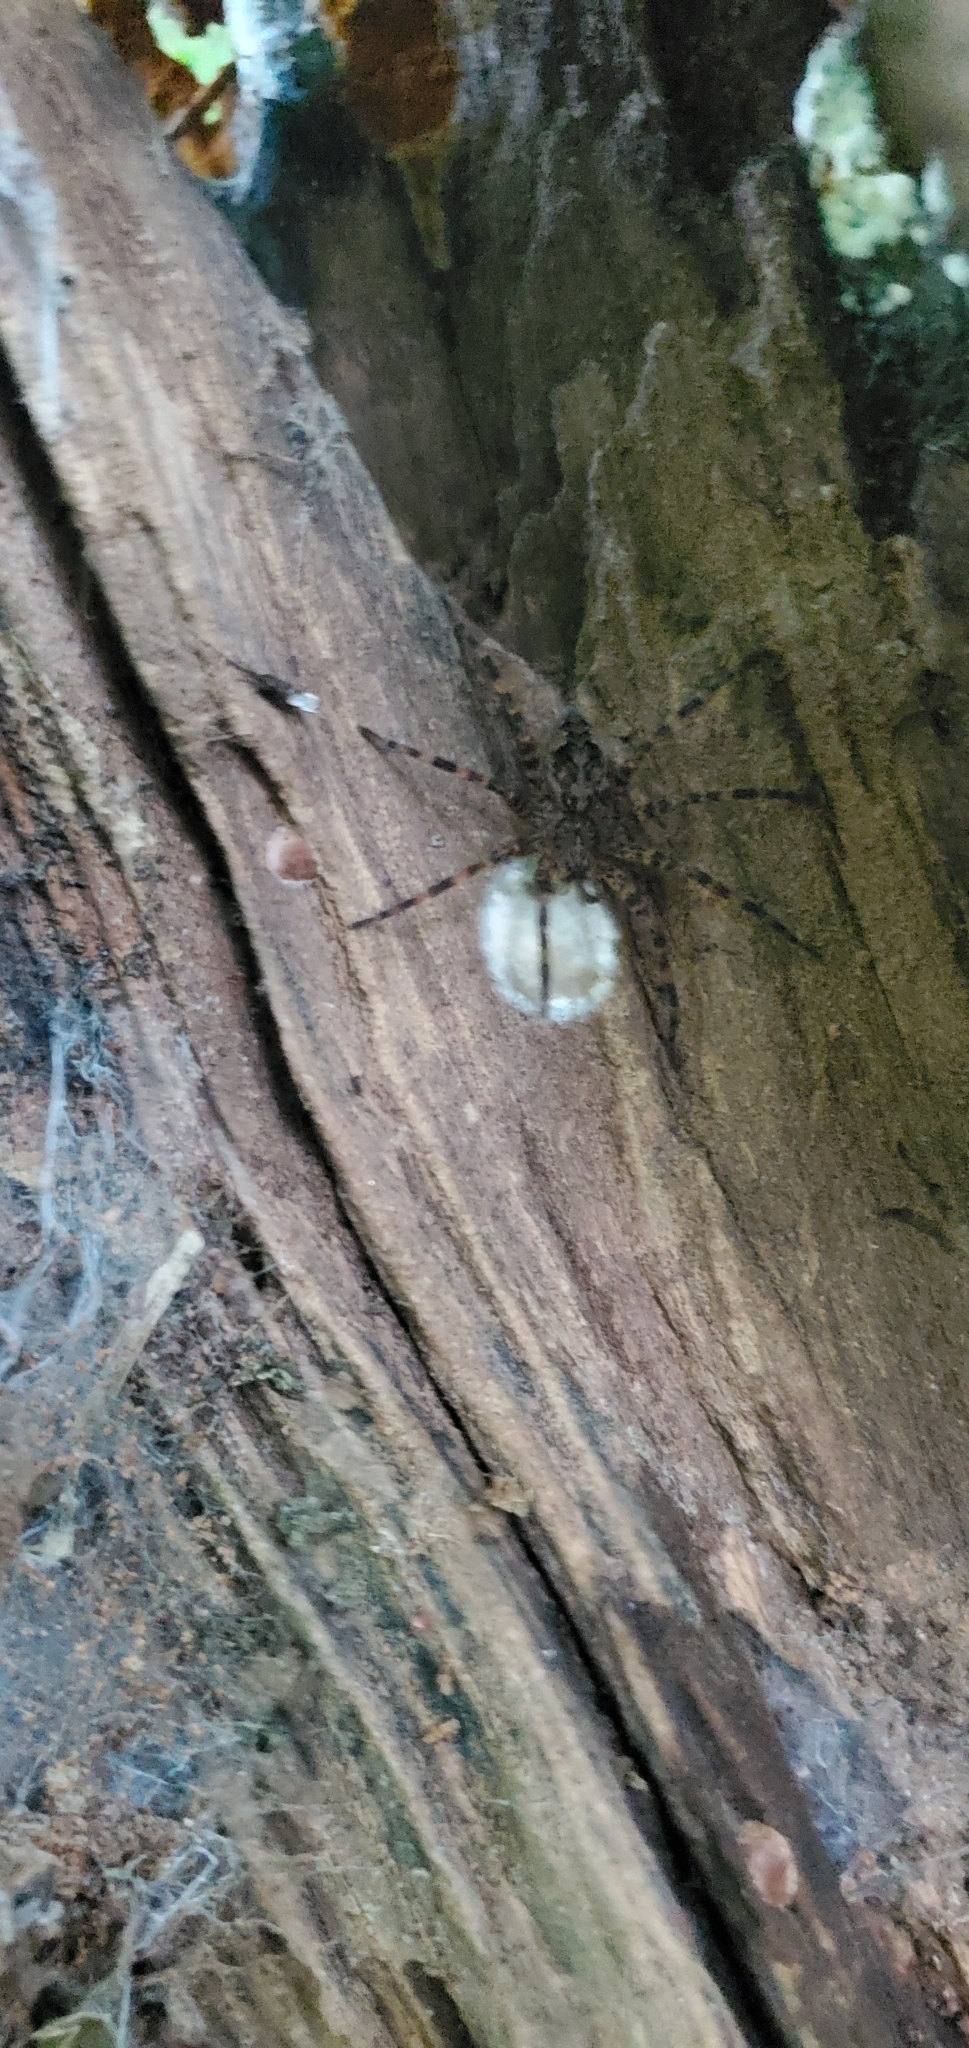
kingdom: Animalia
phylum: Arthropoda
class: Arachnida
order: Araneae
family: Pisauridae
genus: Dolomedes
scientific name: Dolomedes tenebrosus
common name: Dark fishing spider
